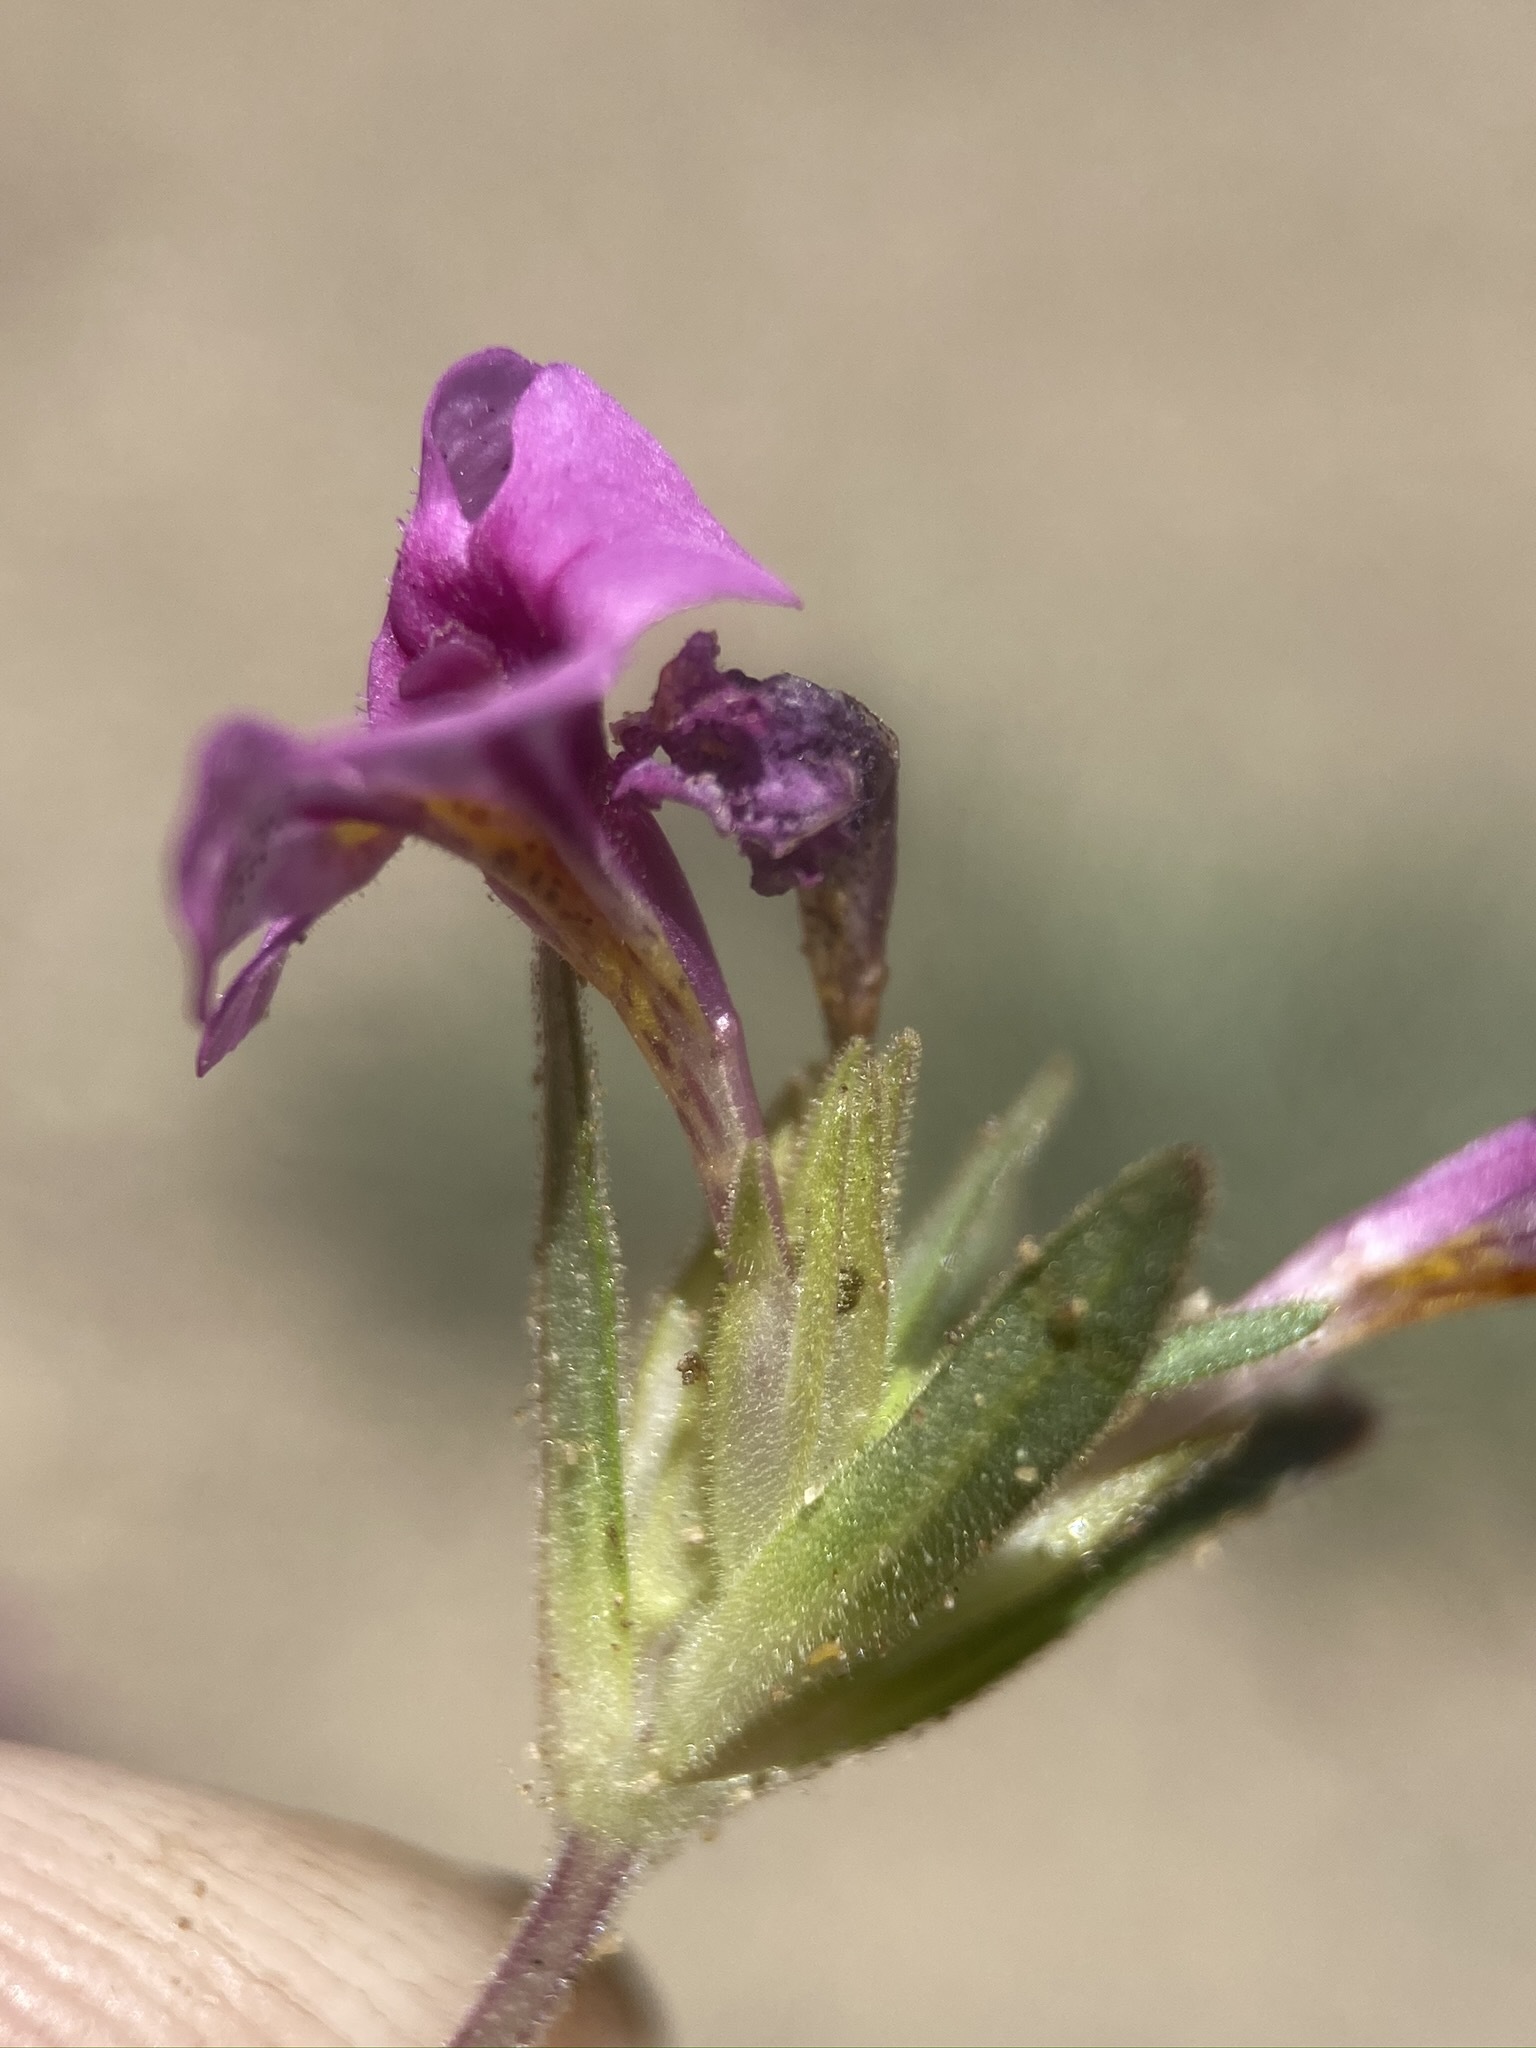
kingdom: Plantae
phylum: Tracheophyta
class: Magnoliopsida
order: Lamiales
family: Phrymaceae
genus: Diplacus
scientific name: Diplacus mephiticus
